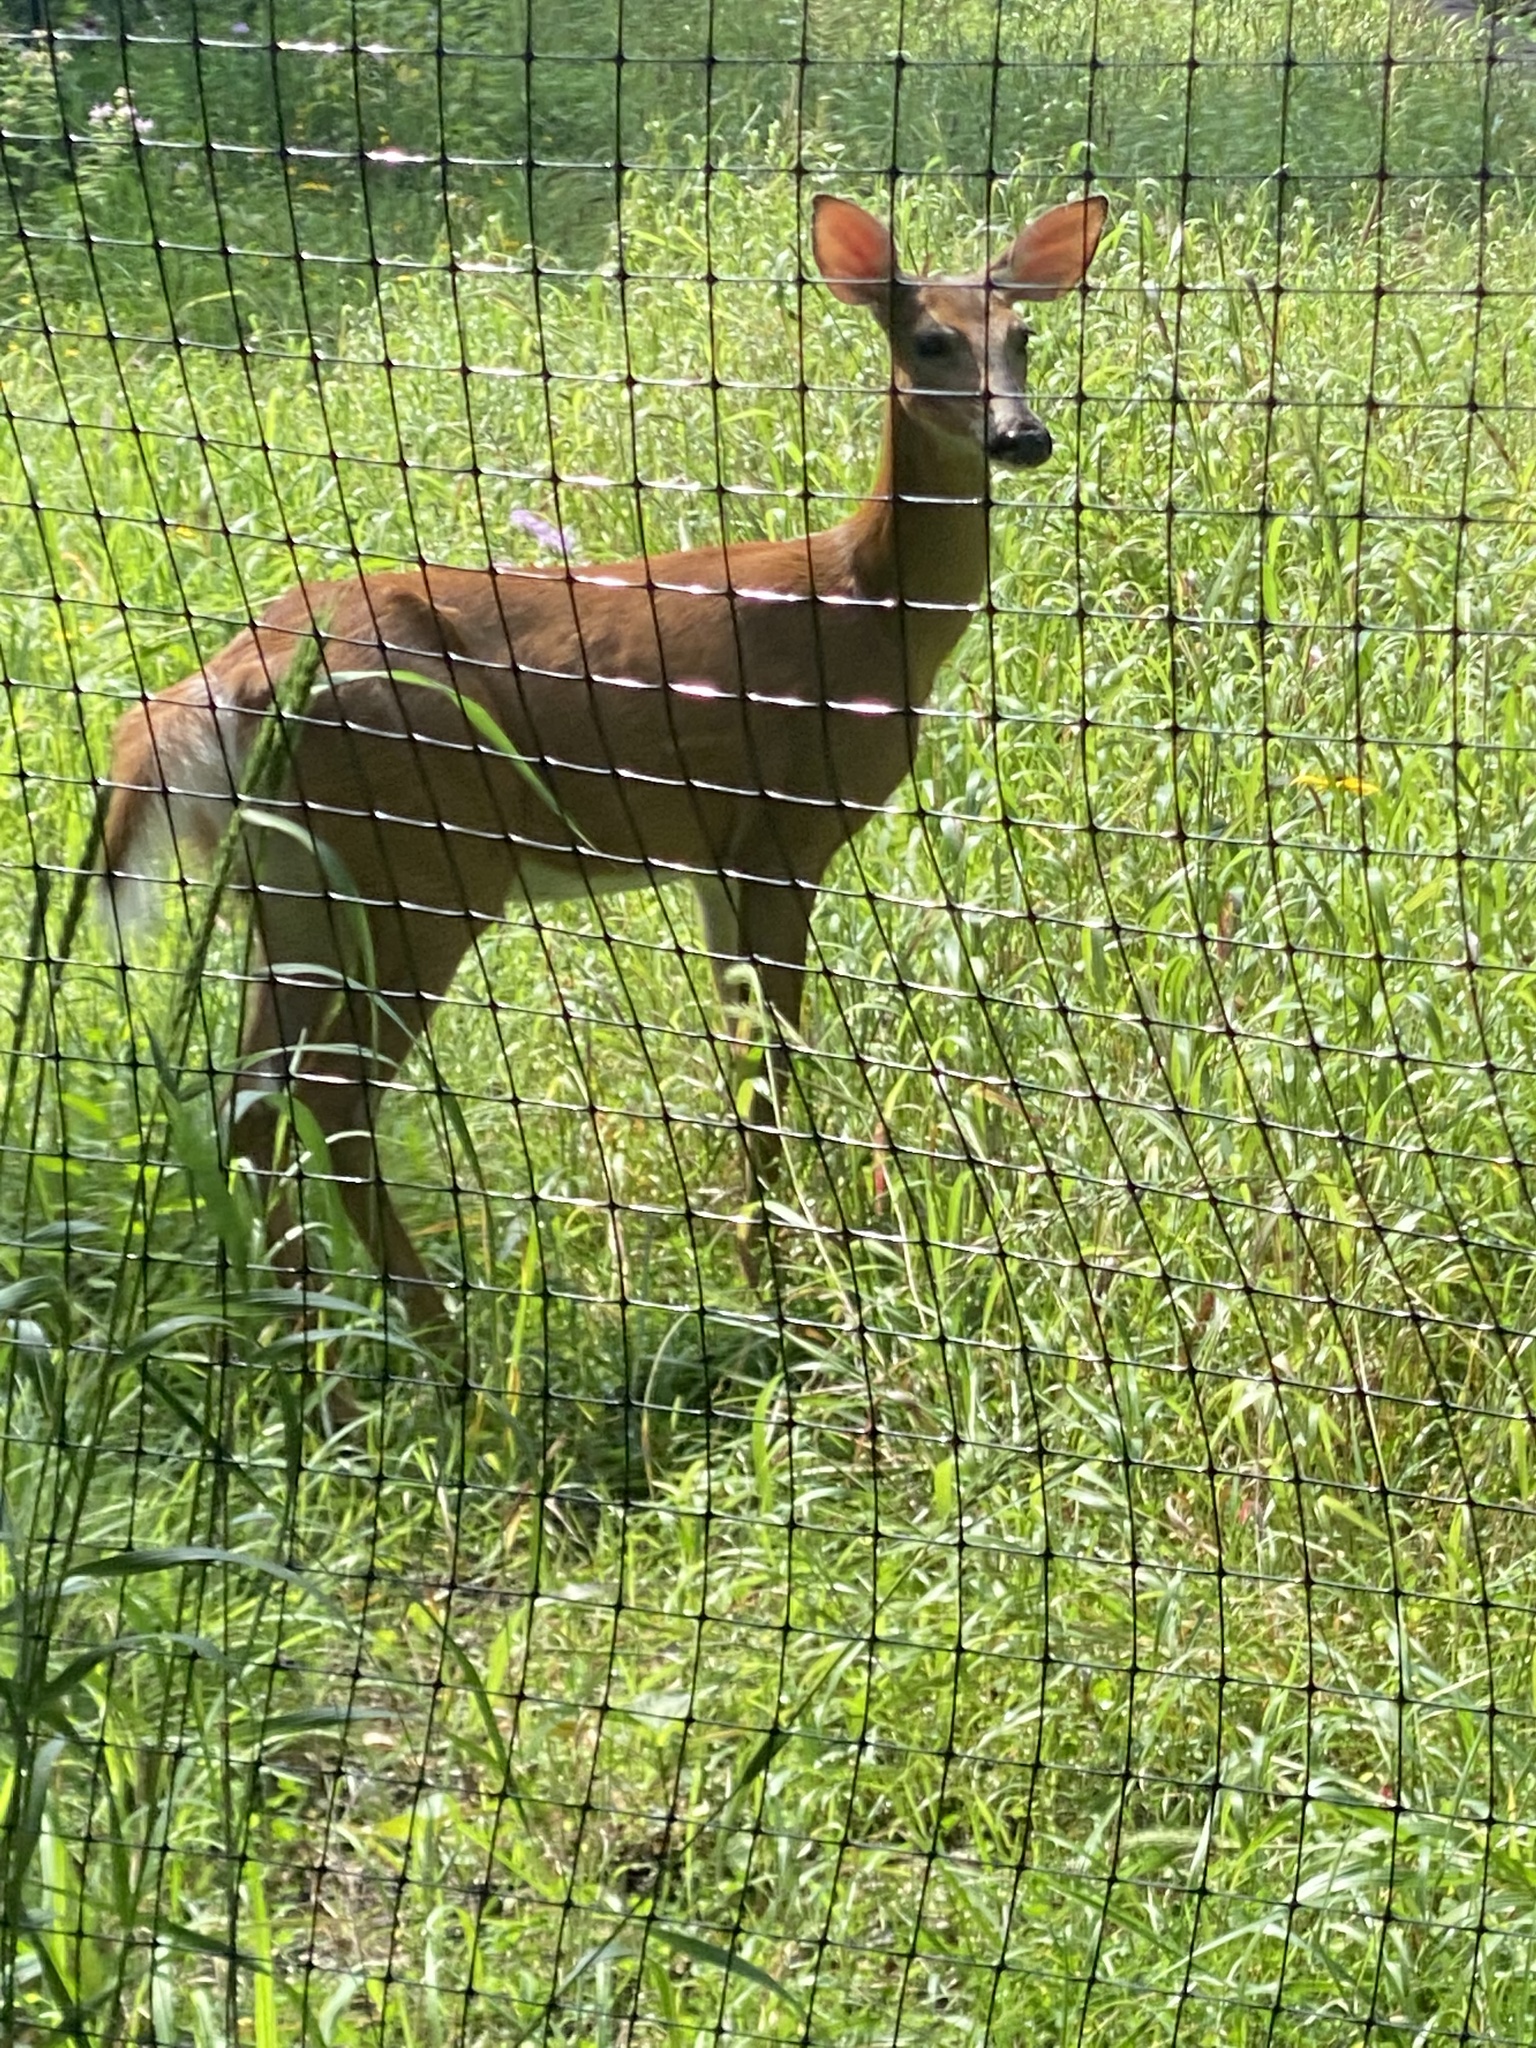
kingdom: Animalia
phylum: Chordata
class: Mammalia
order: Artiodactyla
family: Cervidae
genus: Odocoileus
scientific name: Odocoileus virginianus
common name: White-tailed deer
